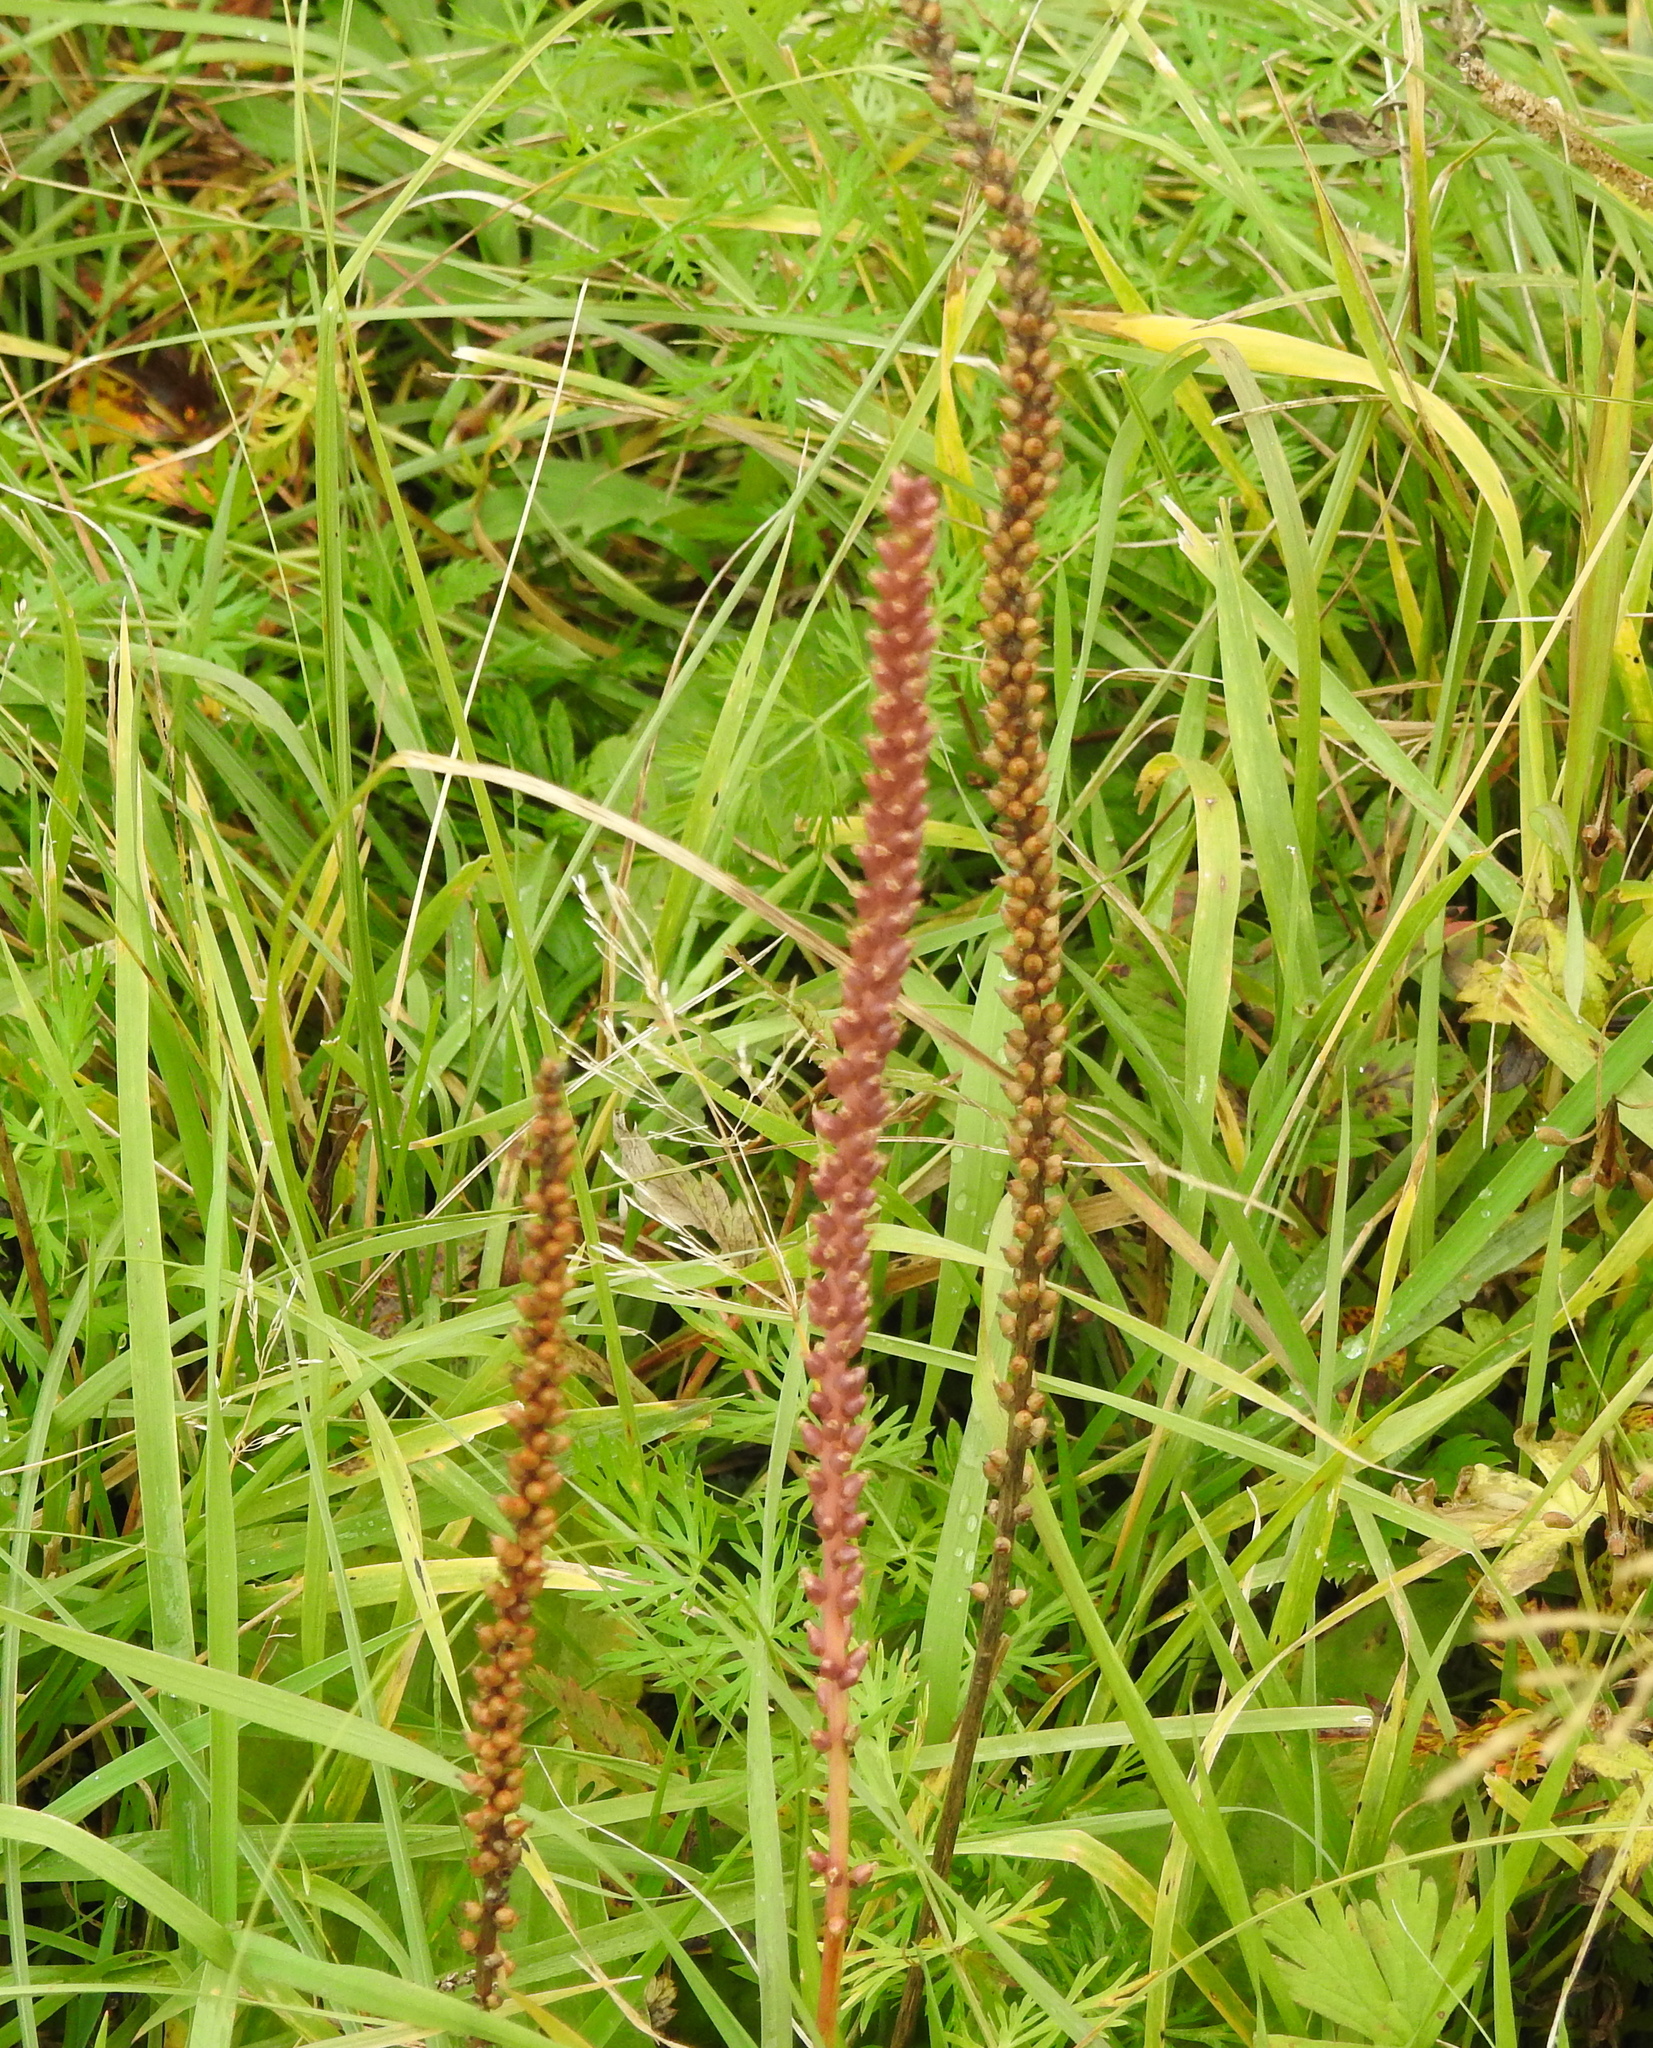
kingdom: Plantae
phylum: Tracheophyta
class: Magnoliopsida
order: Lamiales
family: Plantaginaceae
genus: Plantago
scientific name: Plantago major
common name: Common plantain
